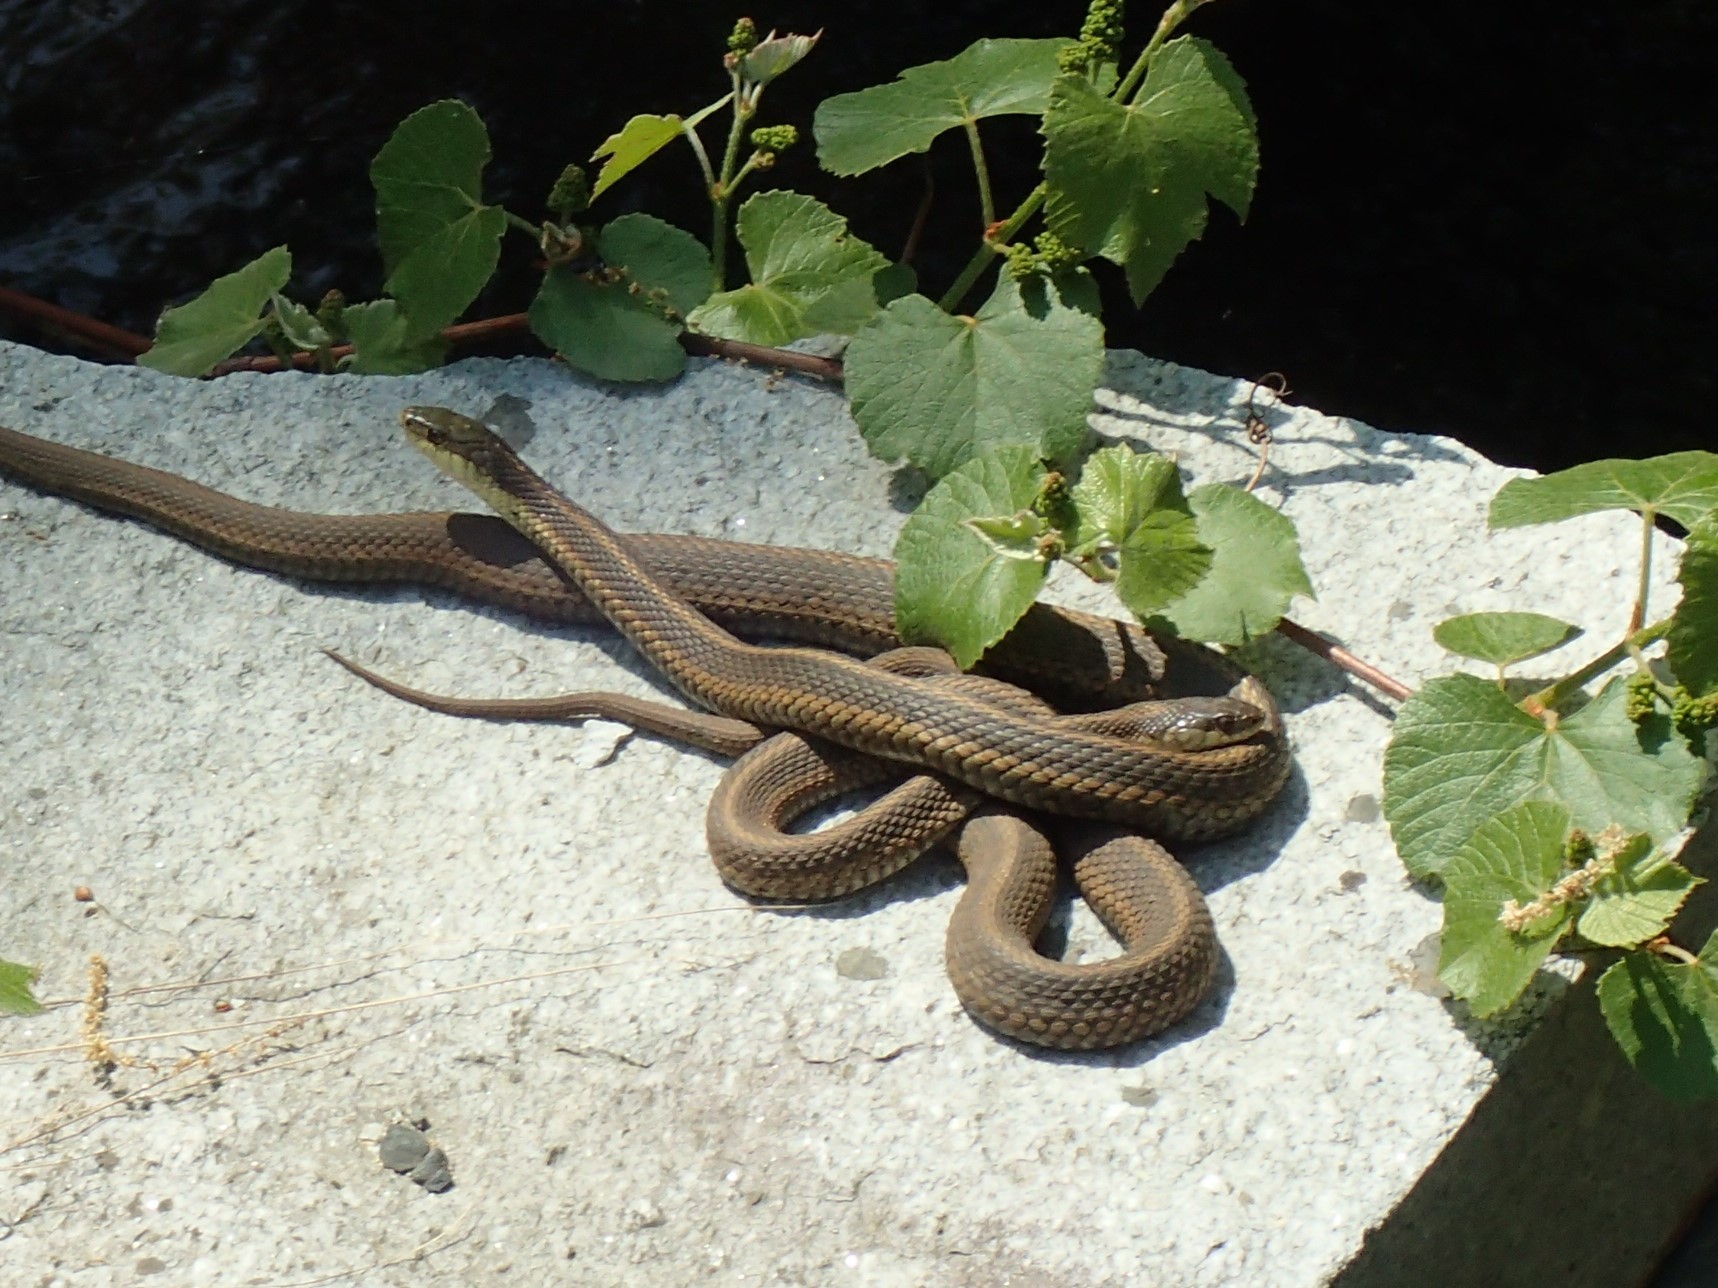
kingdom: Animalia
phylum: Chordata
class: Squamata
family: Colubridae
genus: Thamnophis
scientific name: Thamnophis sirtalis
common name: Common garter snake
